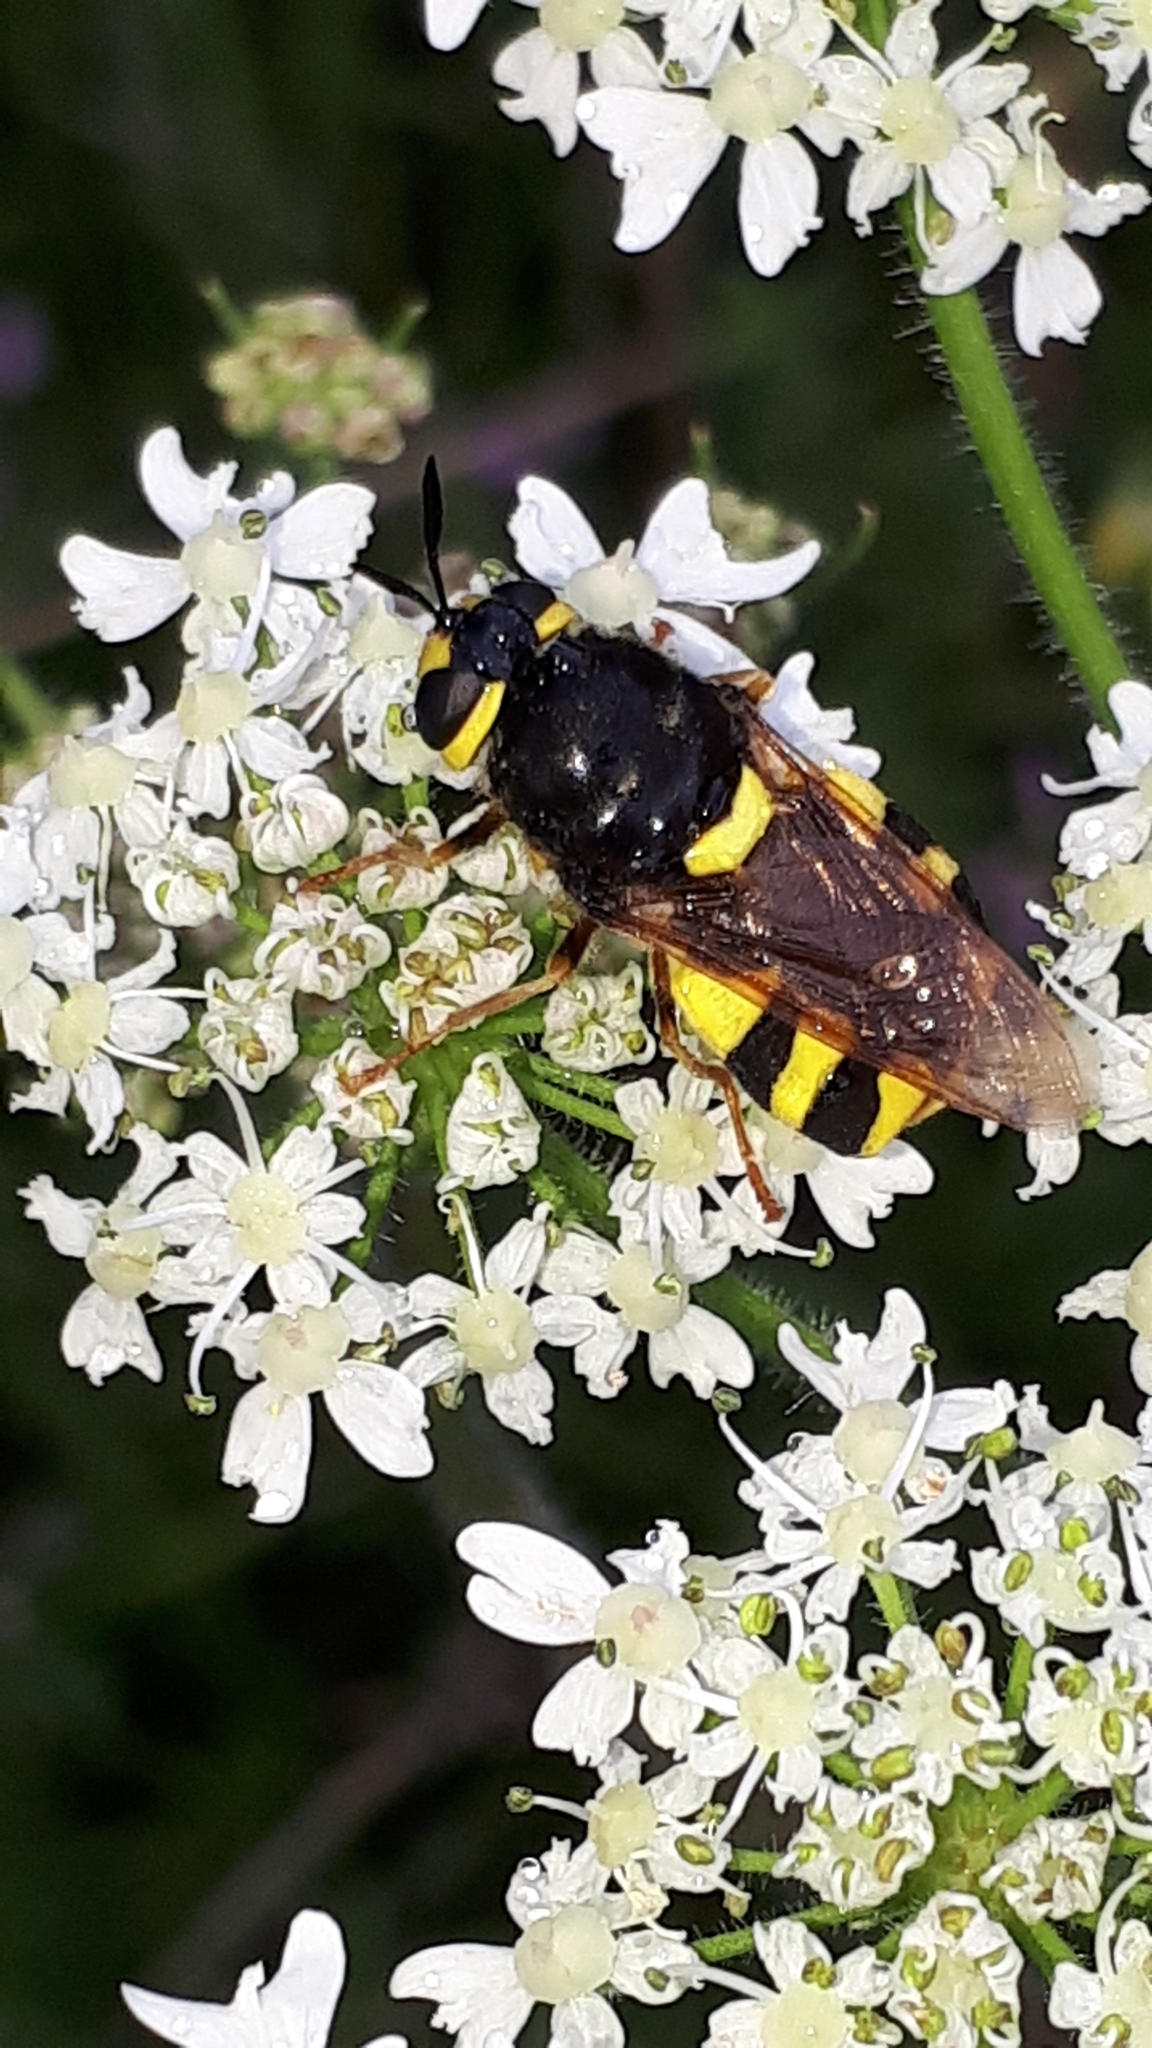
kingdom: Animalia
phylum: Arthropoda
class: Insecta
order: Diptera
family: Stratiomyidae
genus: Stratiomys
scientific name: Stratiomys chamaeleon
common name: Clubbed general
